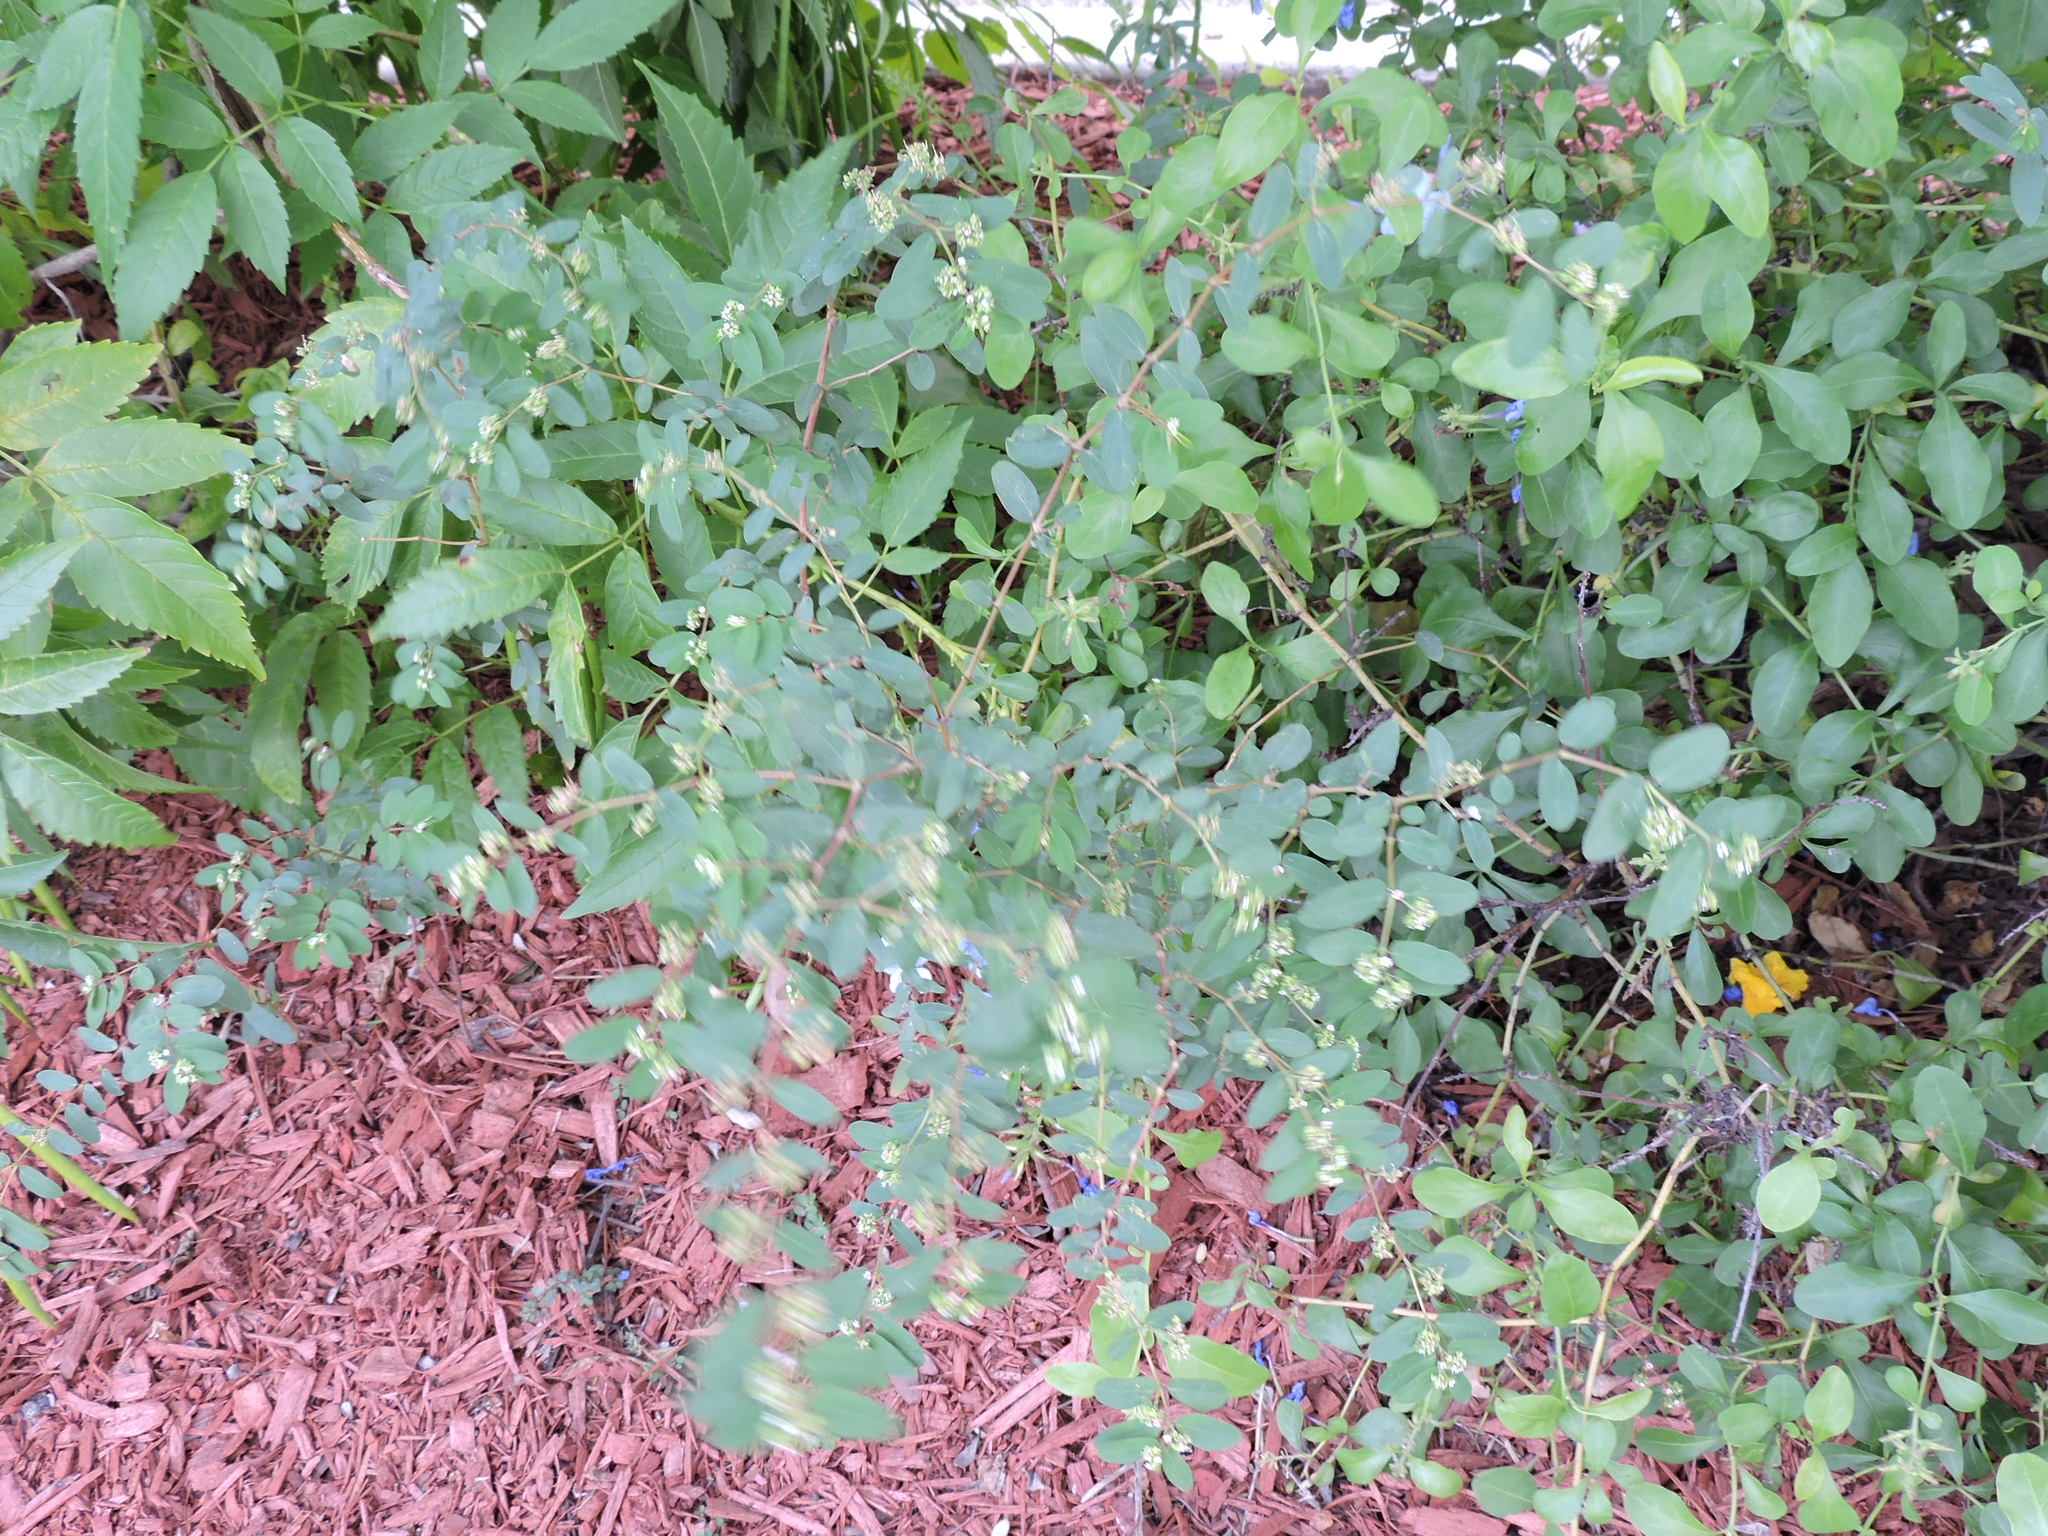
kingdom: Plantae
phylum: Tracheophyta
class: Magnoliopsida
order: Malpighiales
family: Euphorbiaceae
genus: Euphorbia
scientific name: Euphorbia hypericifolia
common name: Graceful sandmat
